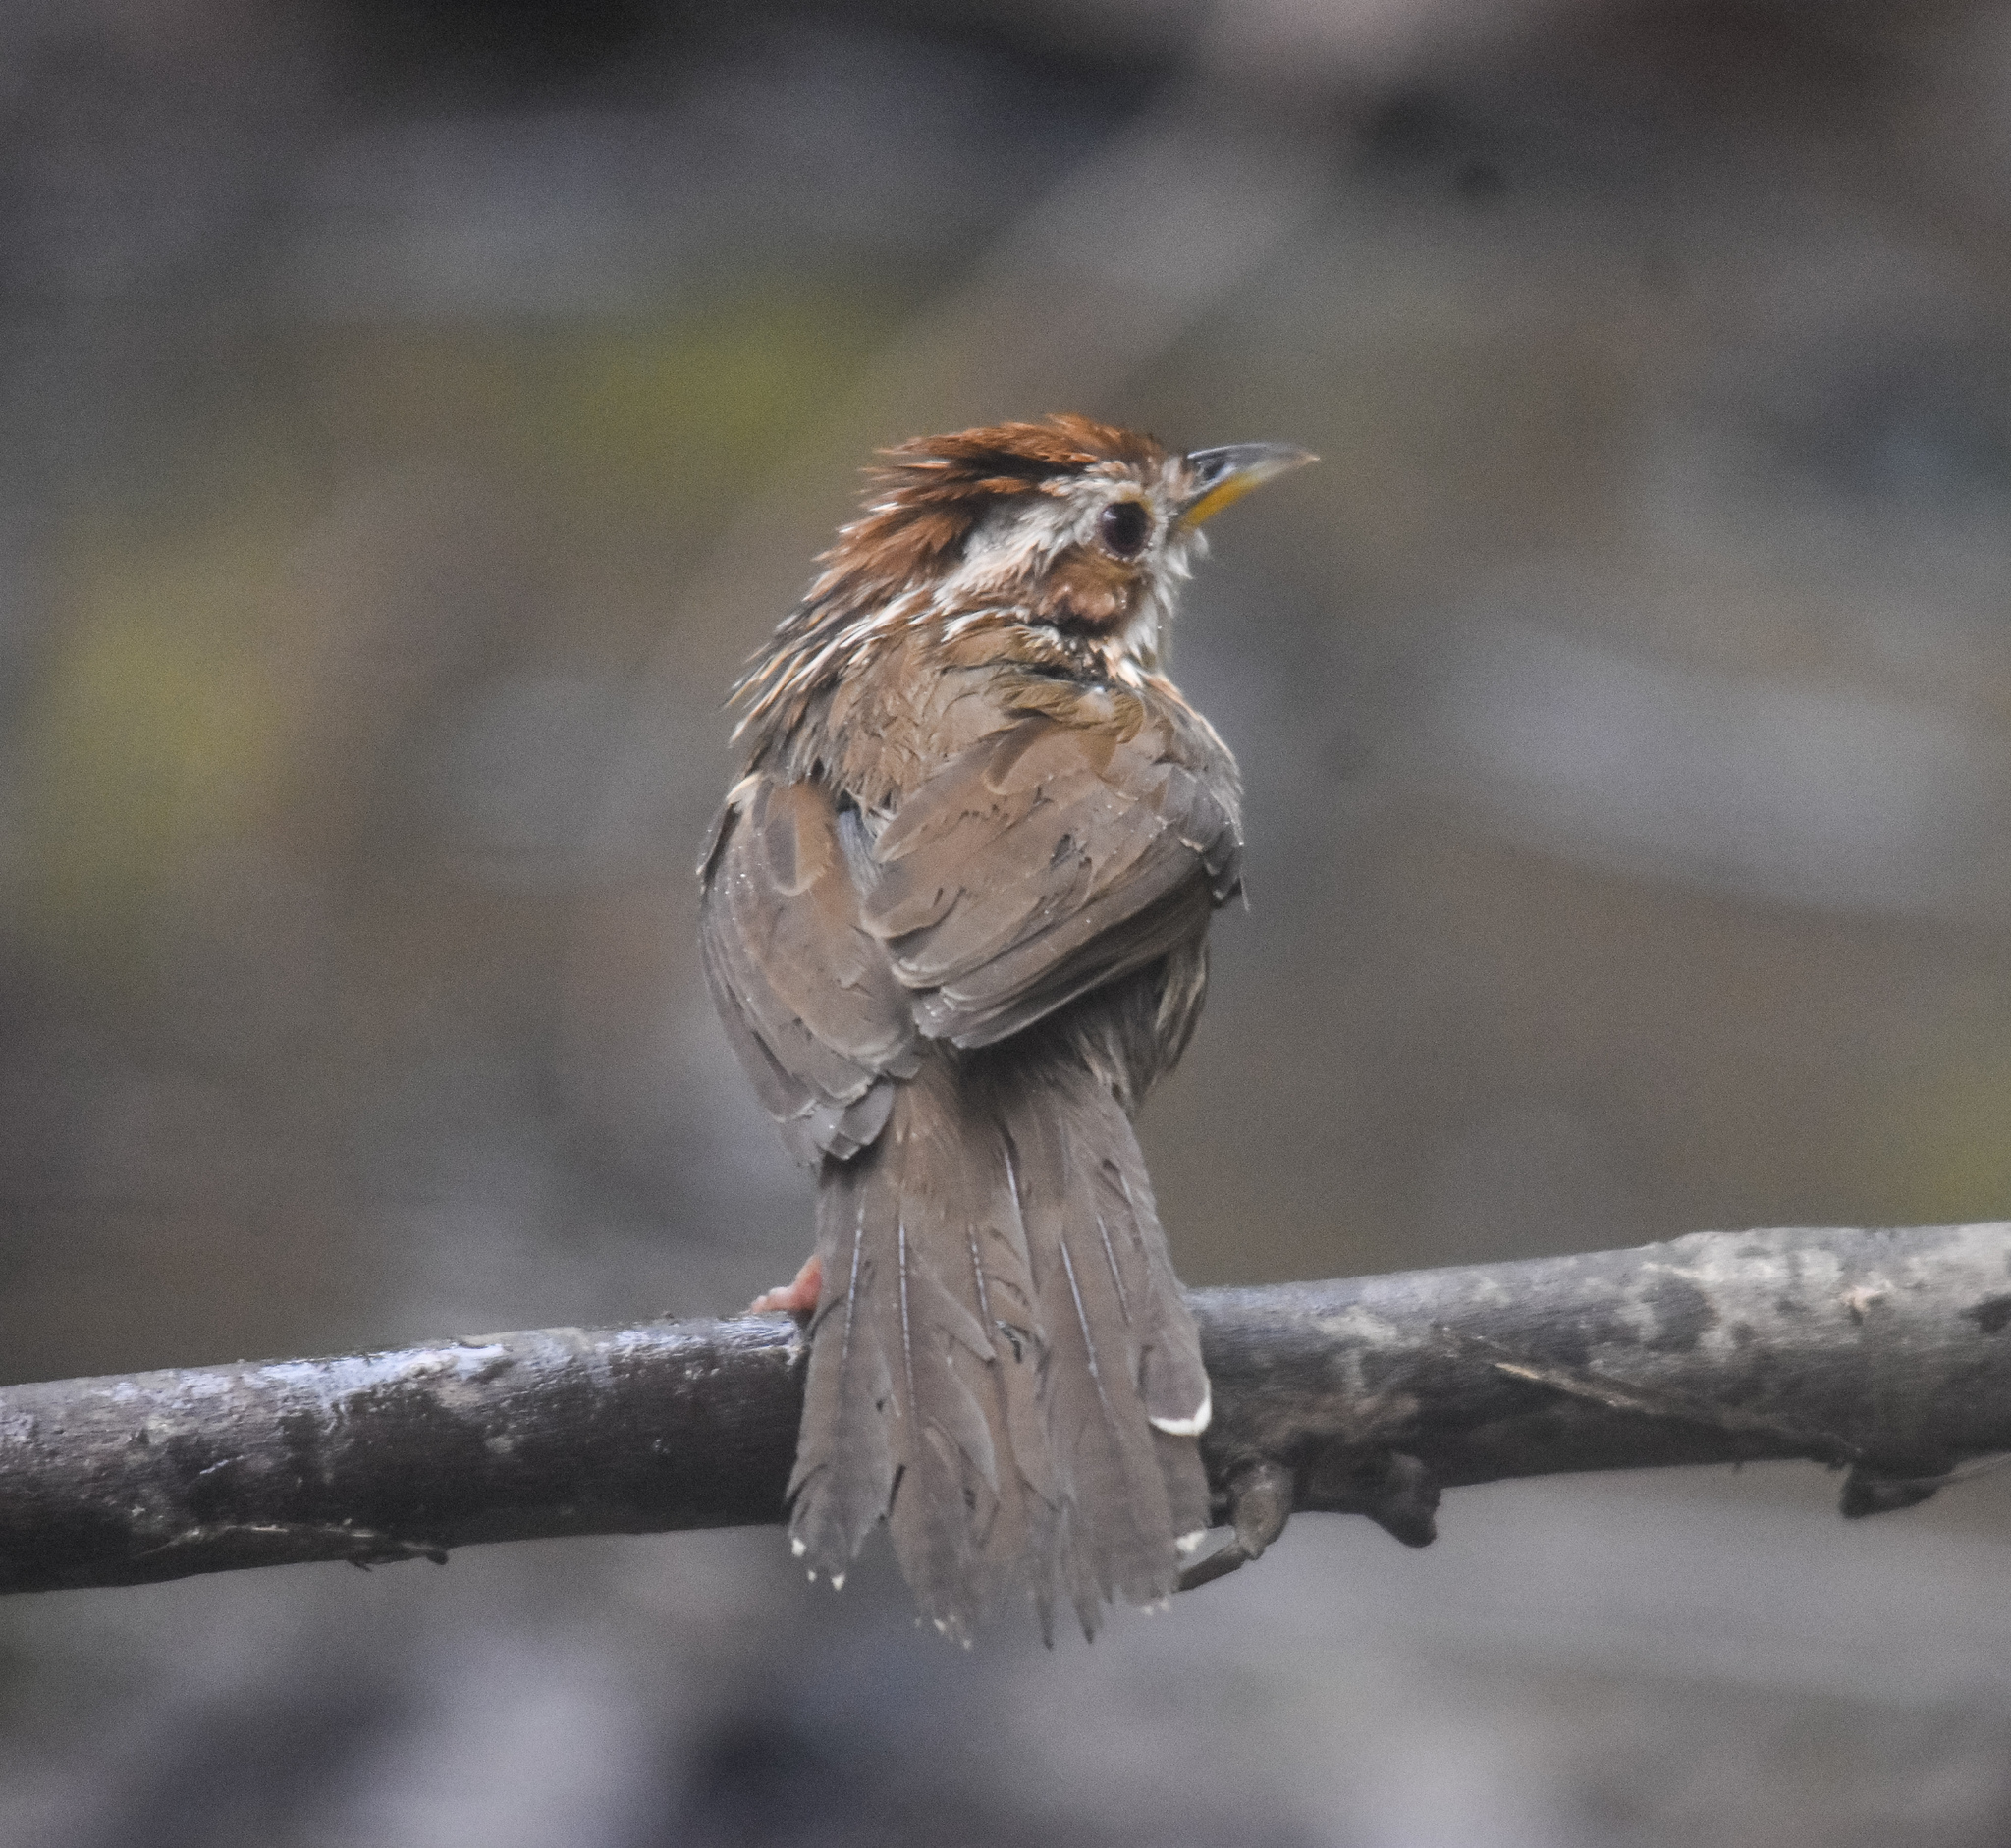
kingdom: Animalia
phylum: Chordata
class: Aves
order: Passeriformes
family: Pellorneidae
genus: Pellorneum
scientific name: Pellorneum ruficeps
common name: Puff-throated babbler
